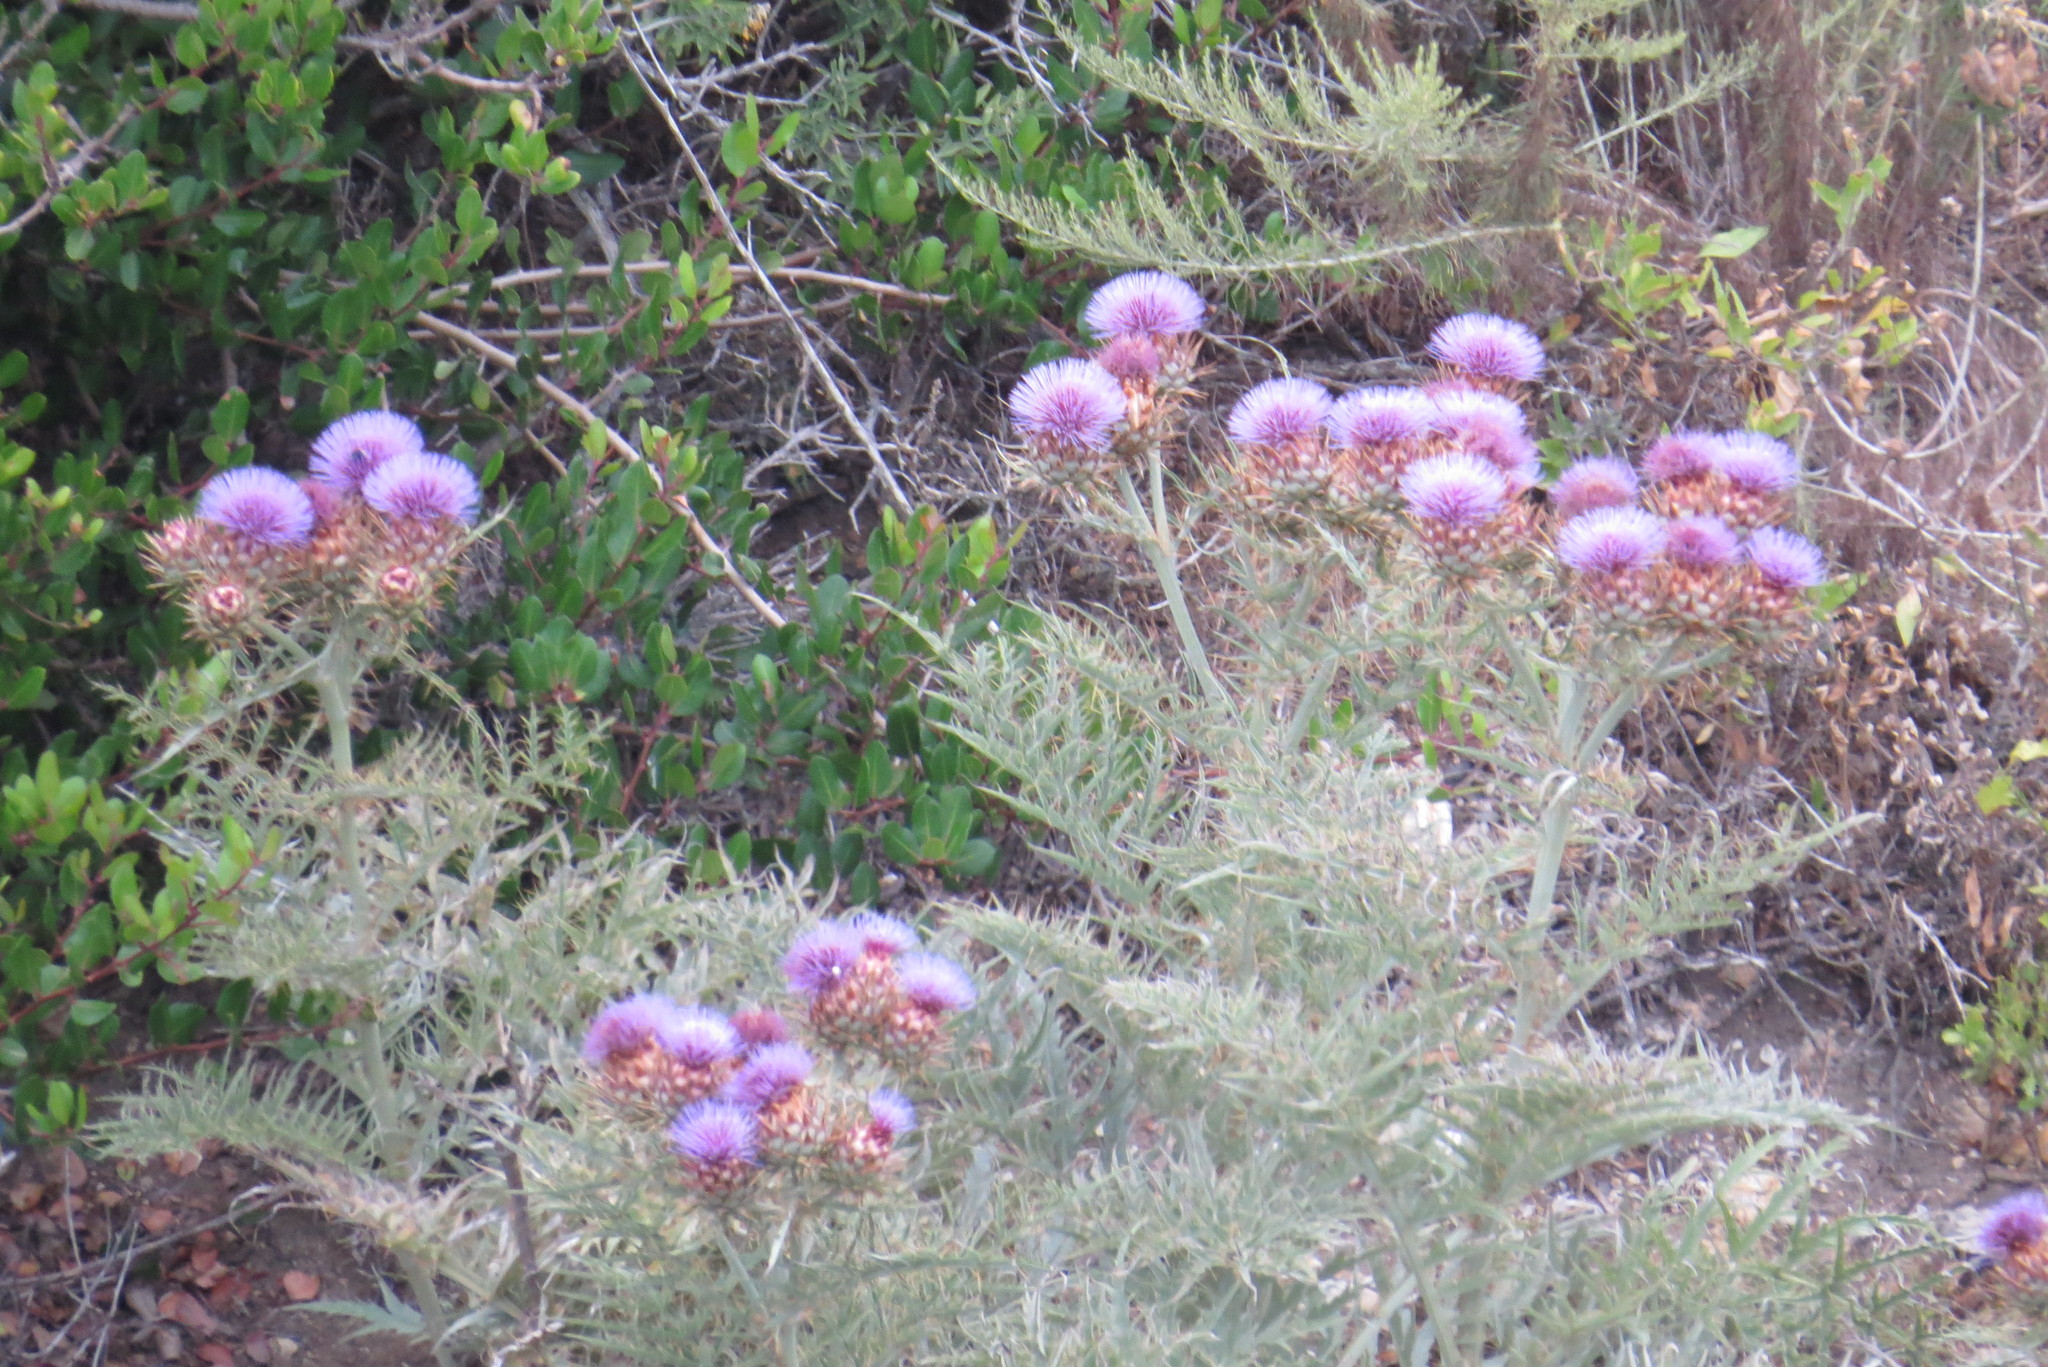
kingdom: Plantae
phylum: Tracheophyta
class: Magnoliopsida
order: Asterales
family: Asteraceae
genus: Cynara
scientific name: Cynara cardunculus
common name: Globe artichoke
